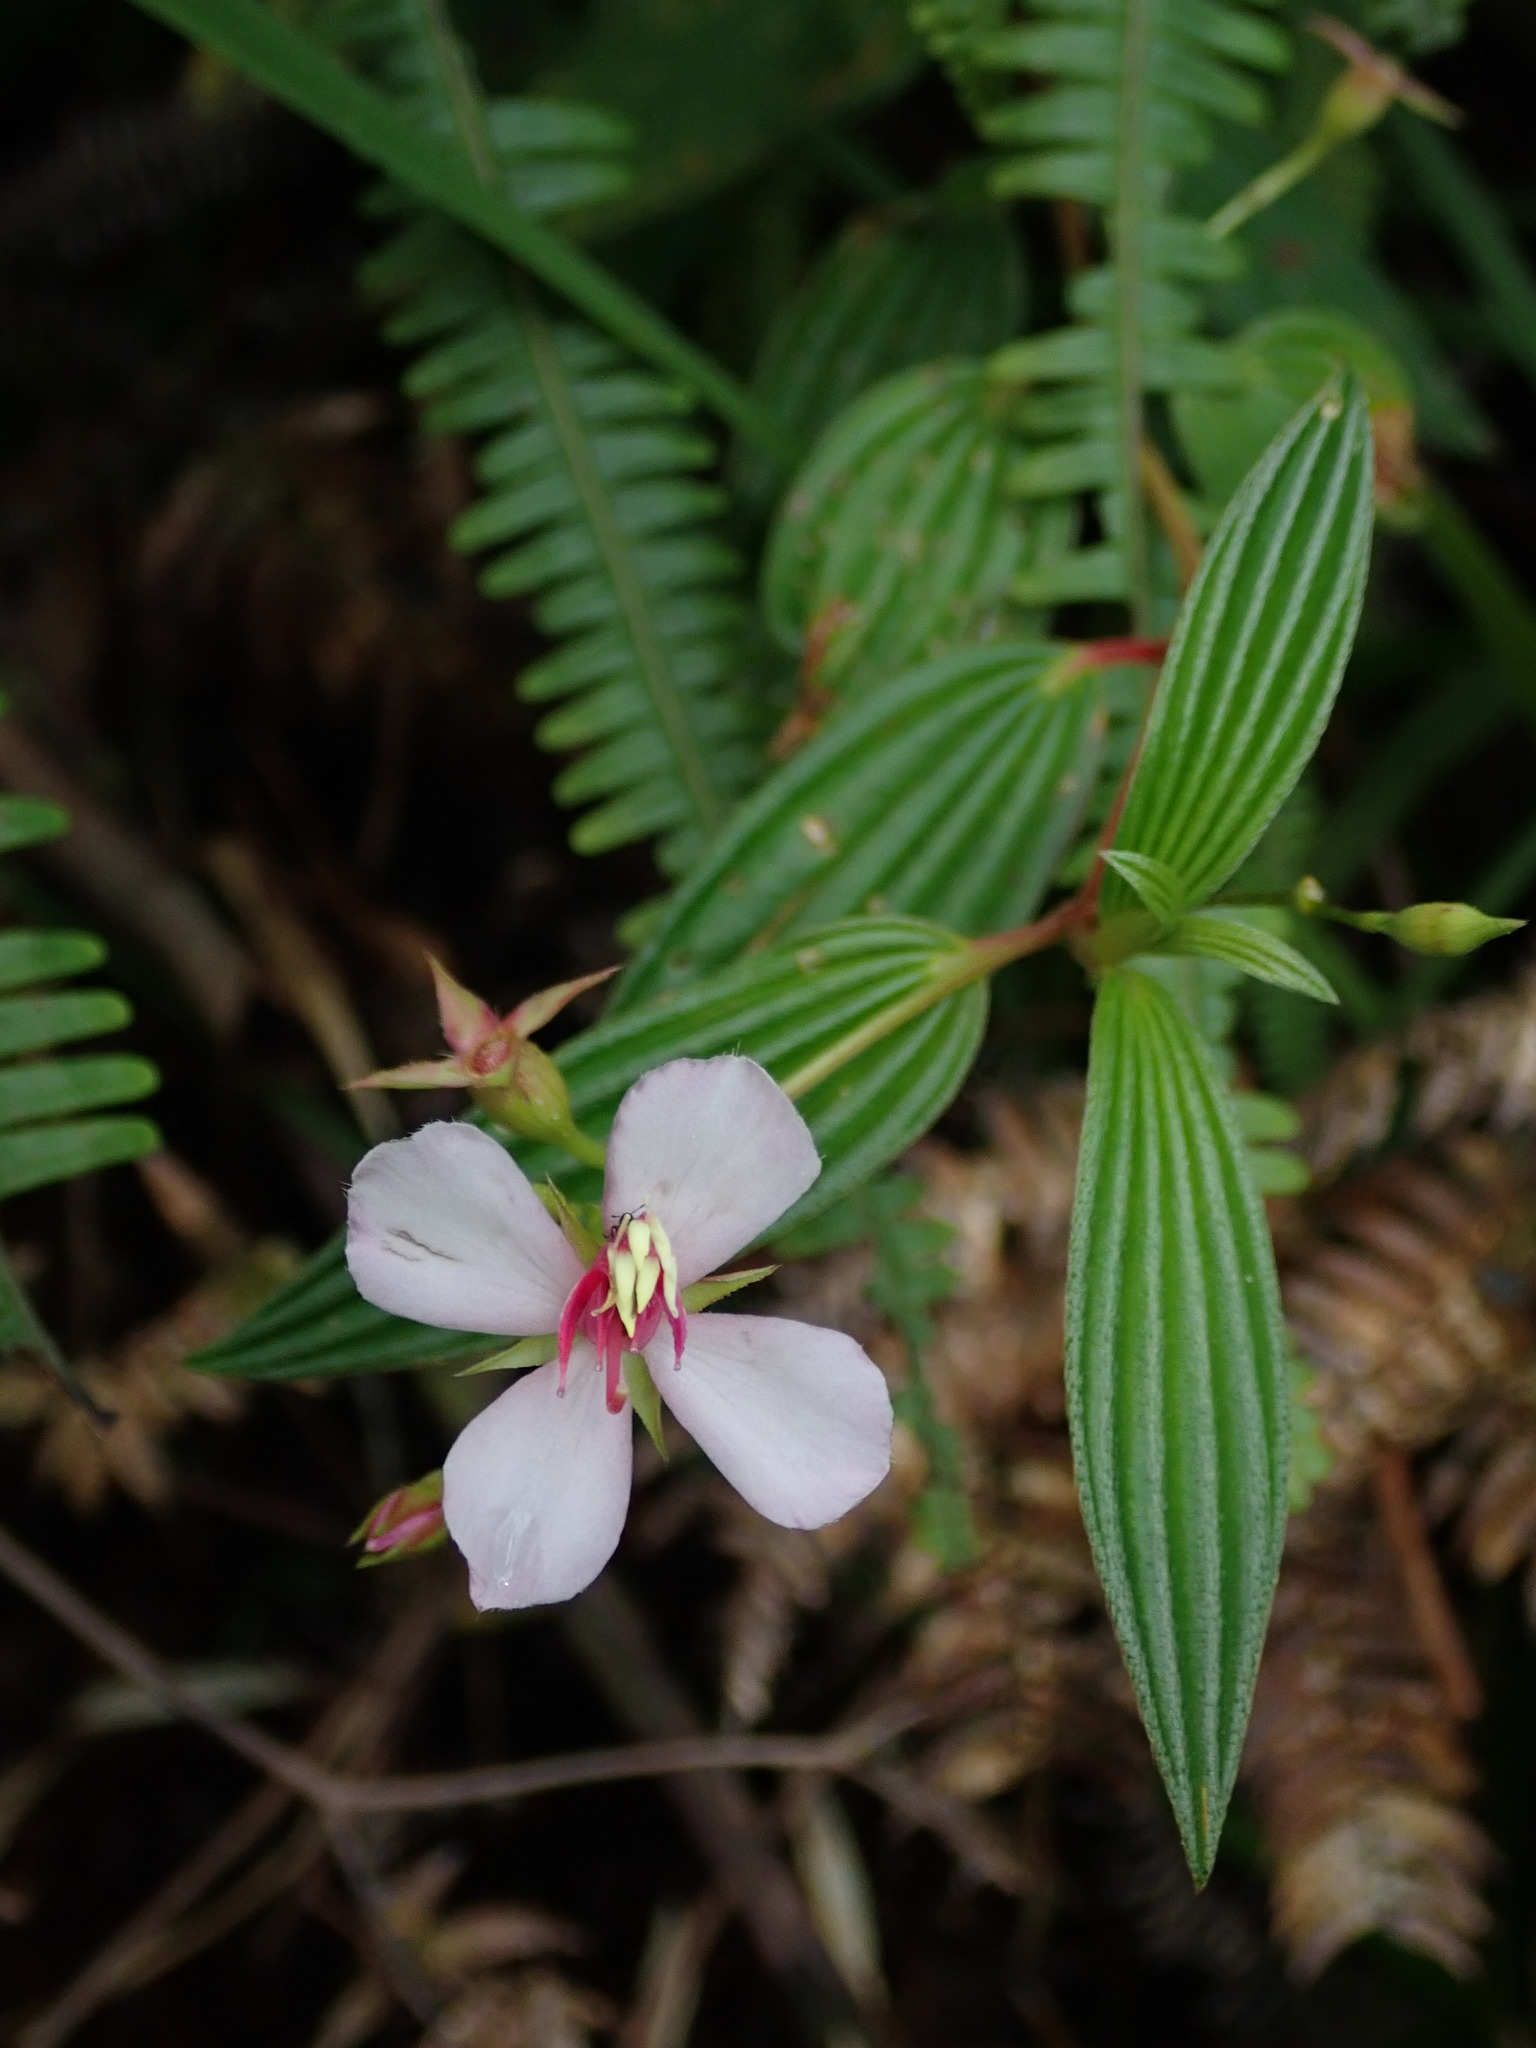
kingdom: Plantae
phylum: Tracheophyta
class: Magnoliopsida
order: Myrtales
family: Melastomataceae
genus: Monochaetum
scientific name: Monochaetum lineatum
